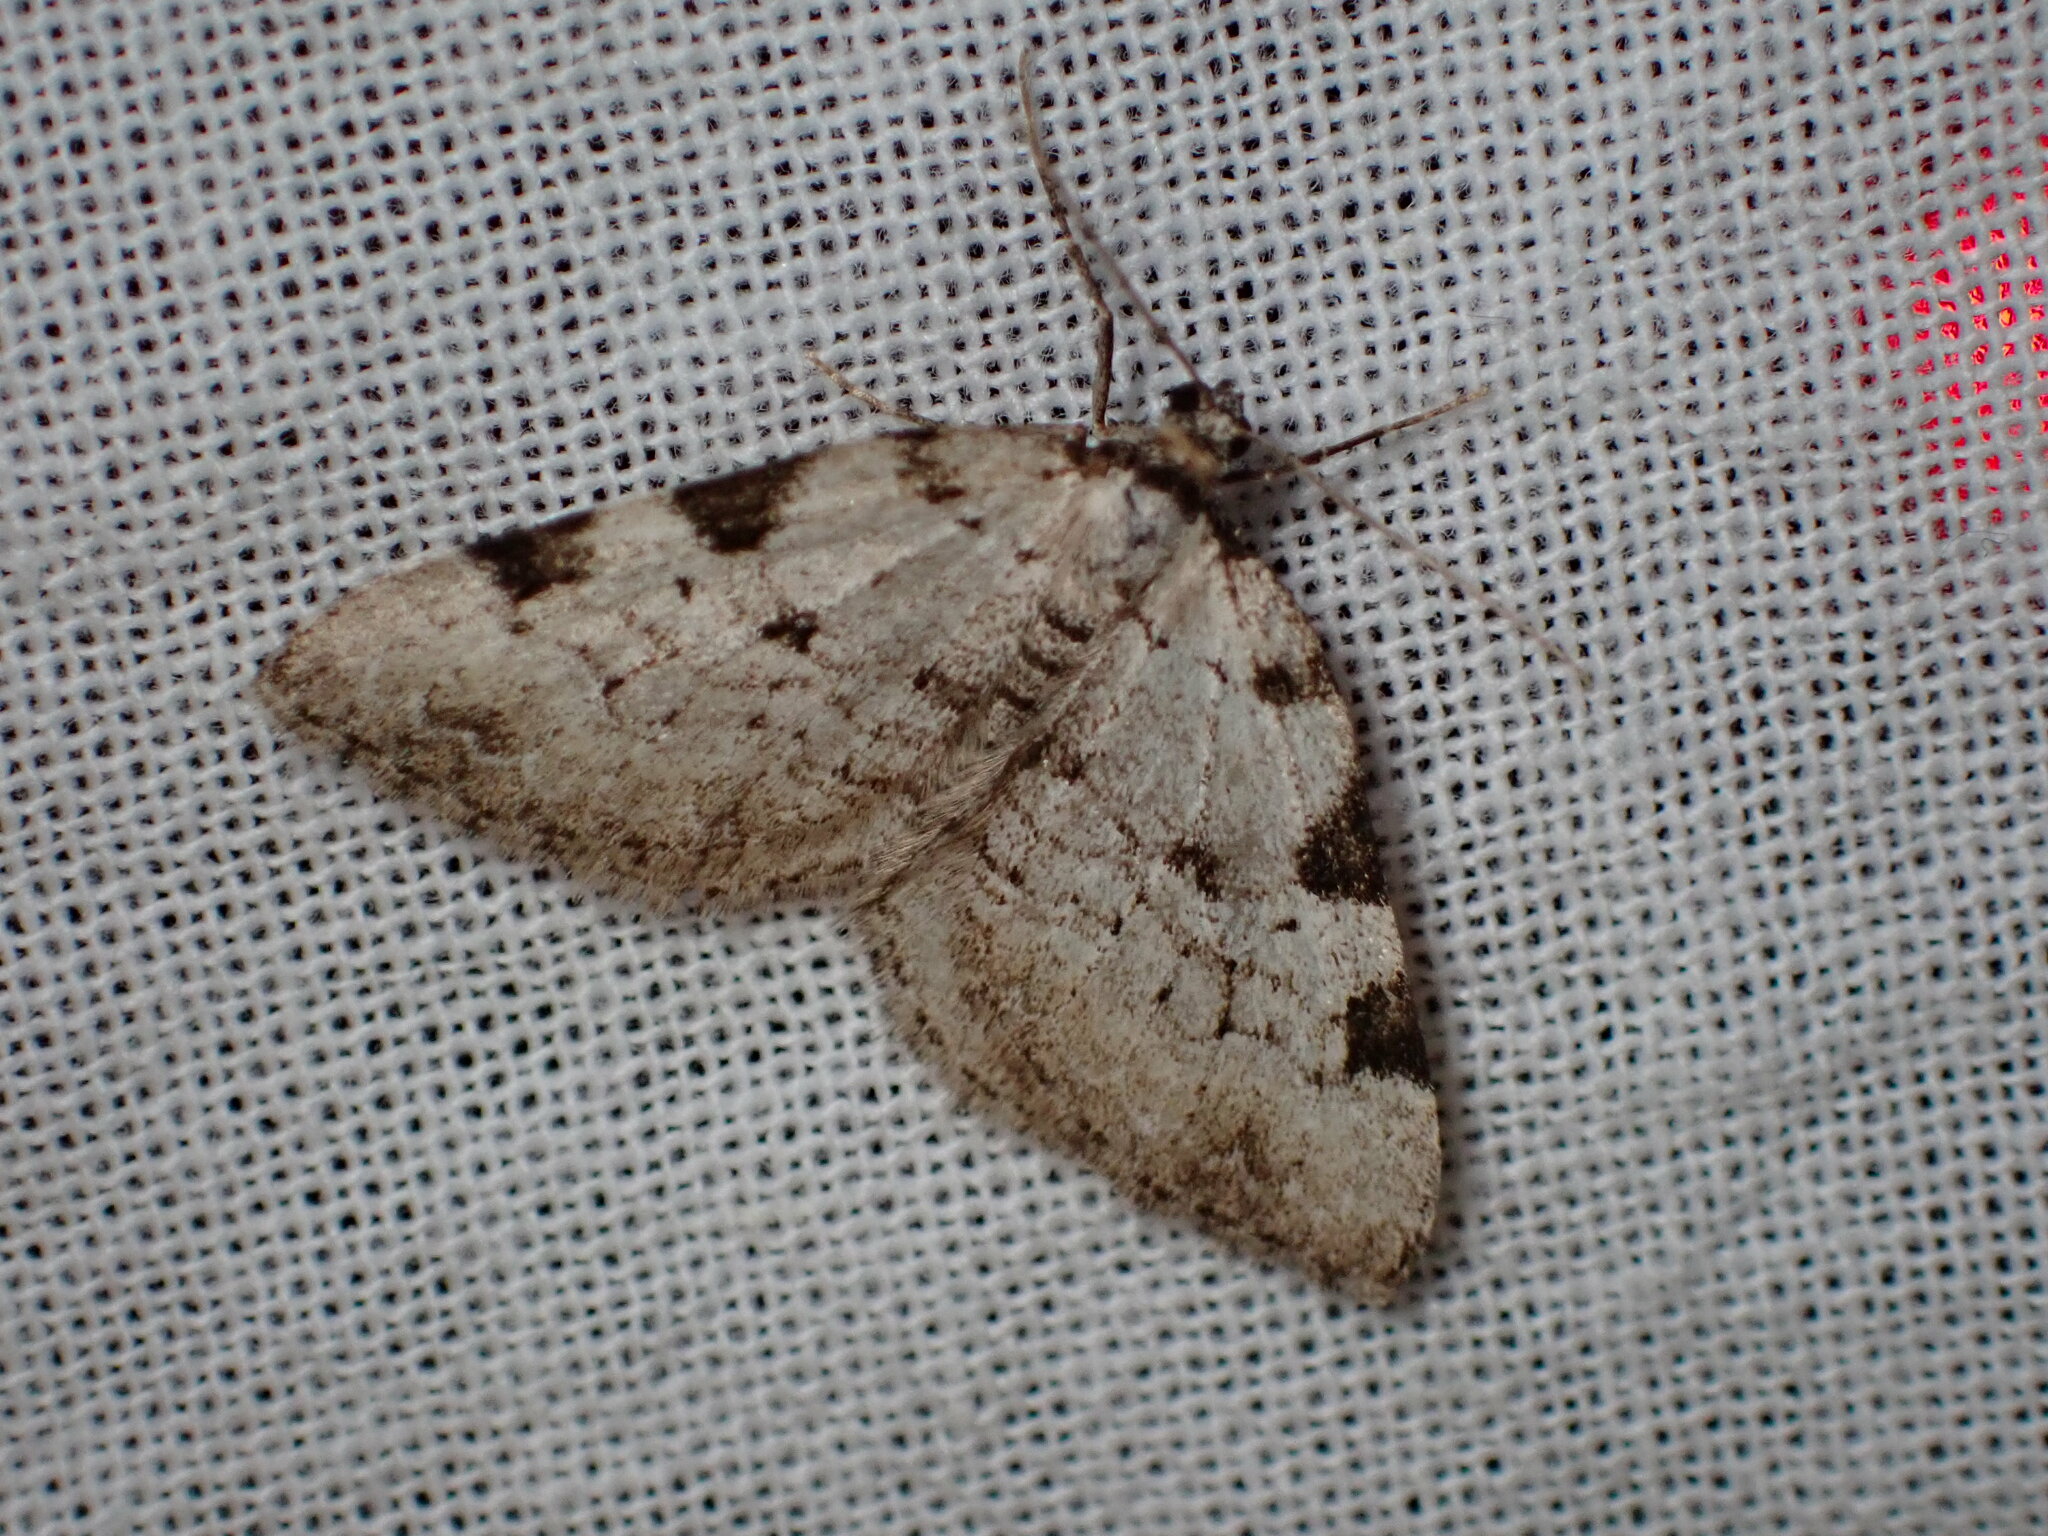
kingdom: Animalia
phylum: Arthropoda
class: Insecta
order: Lepidoptera
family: Geometridae
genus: Perizoma
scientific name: Perizoma costiguttata
